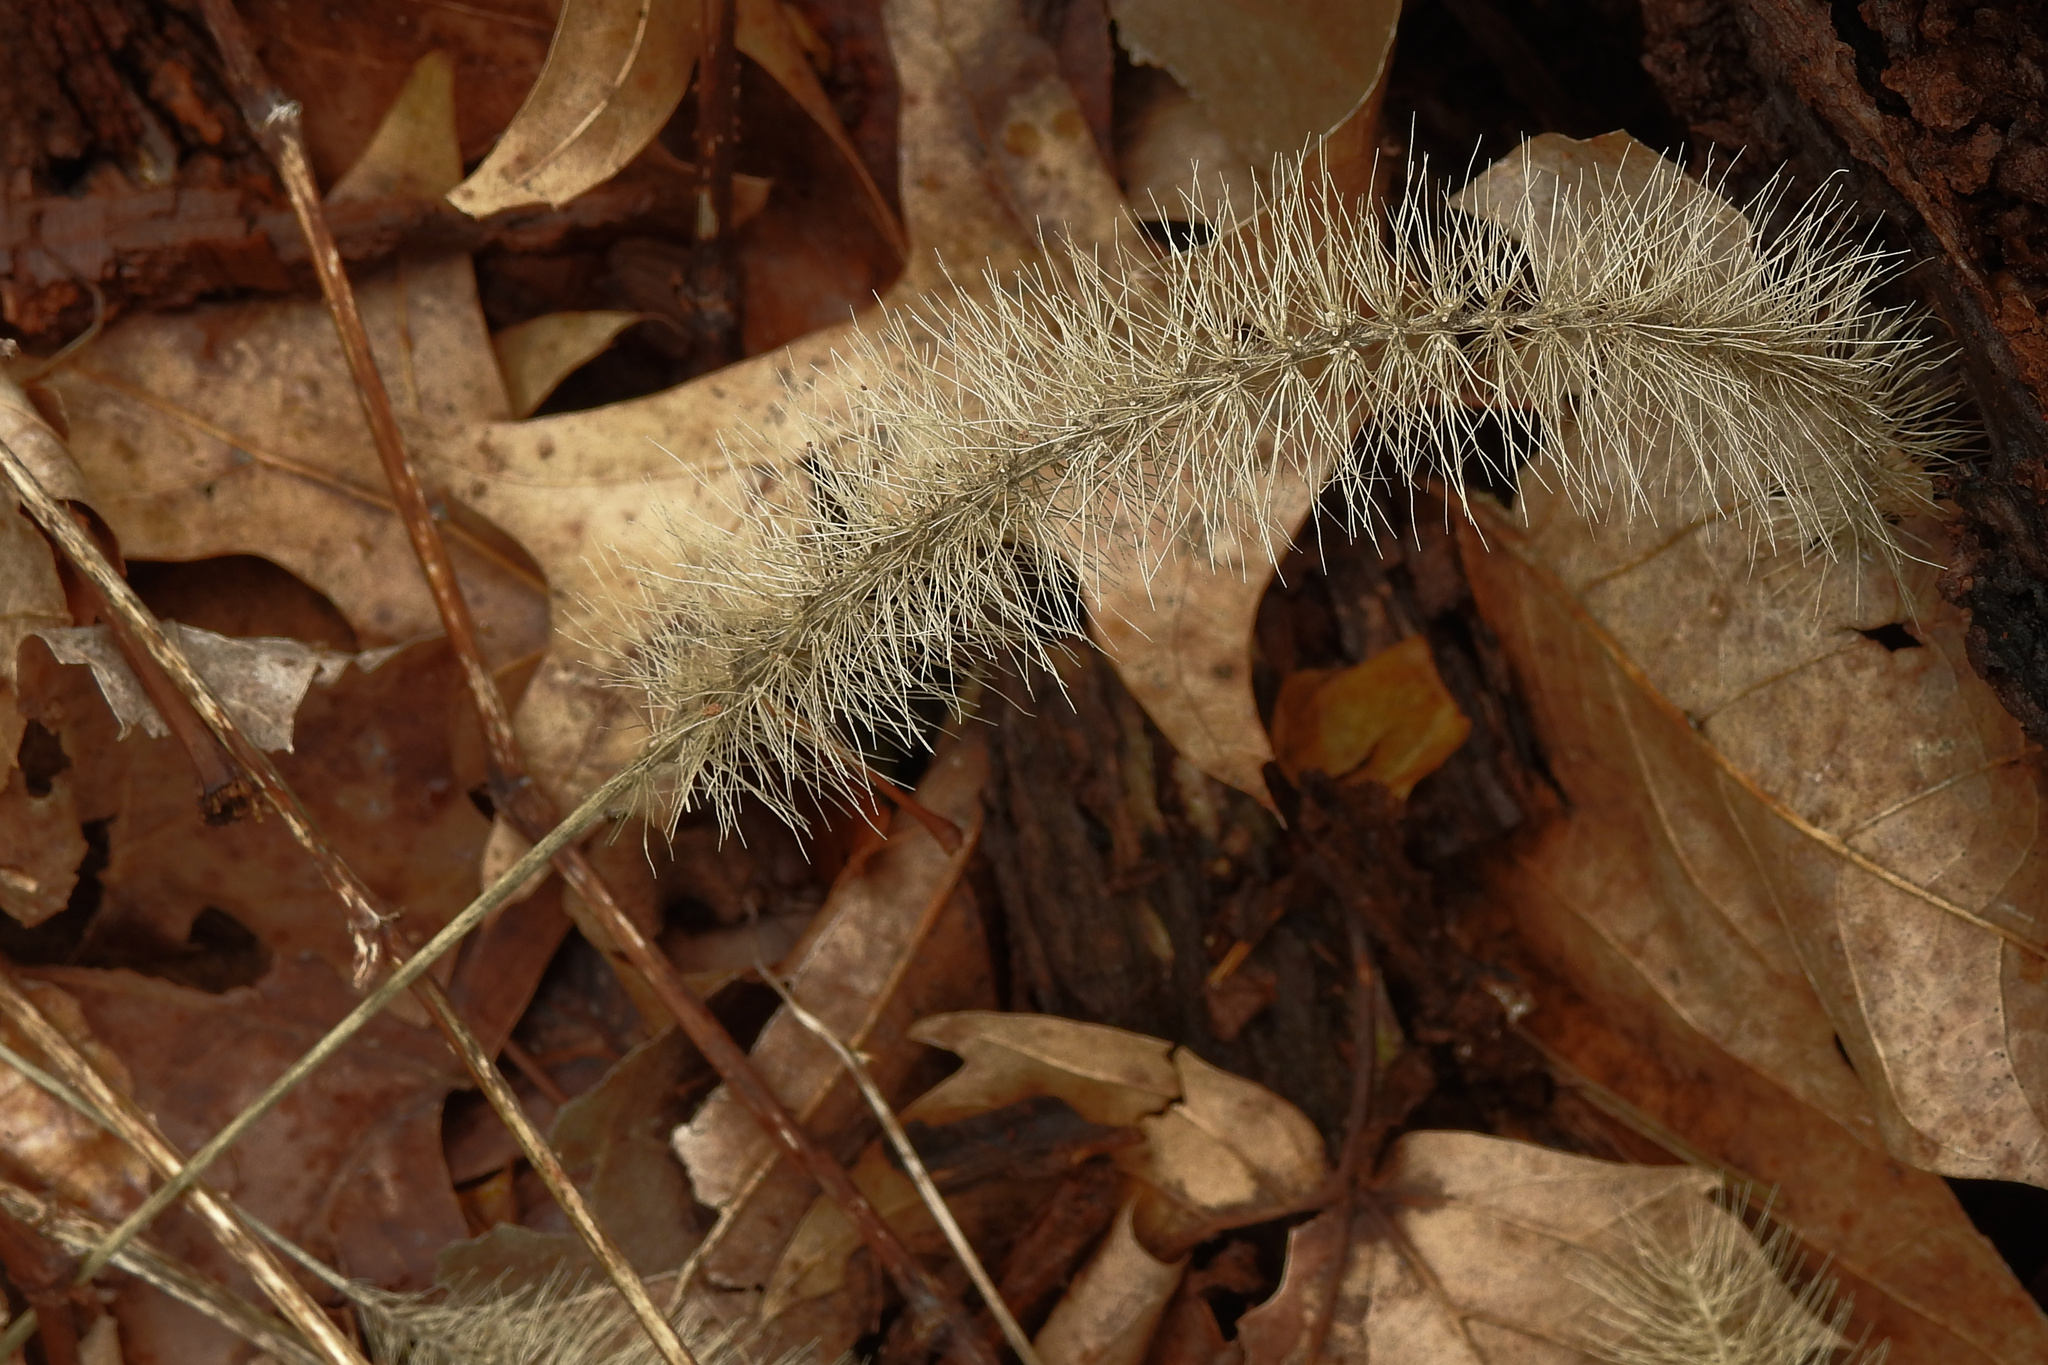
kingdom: Plantae
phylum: Tracheophyta
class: Liliopsida
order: Poales
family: Poaceae
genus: Setaria
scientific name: Setaria faberi
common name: Nodding bristle-grass
